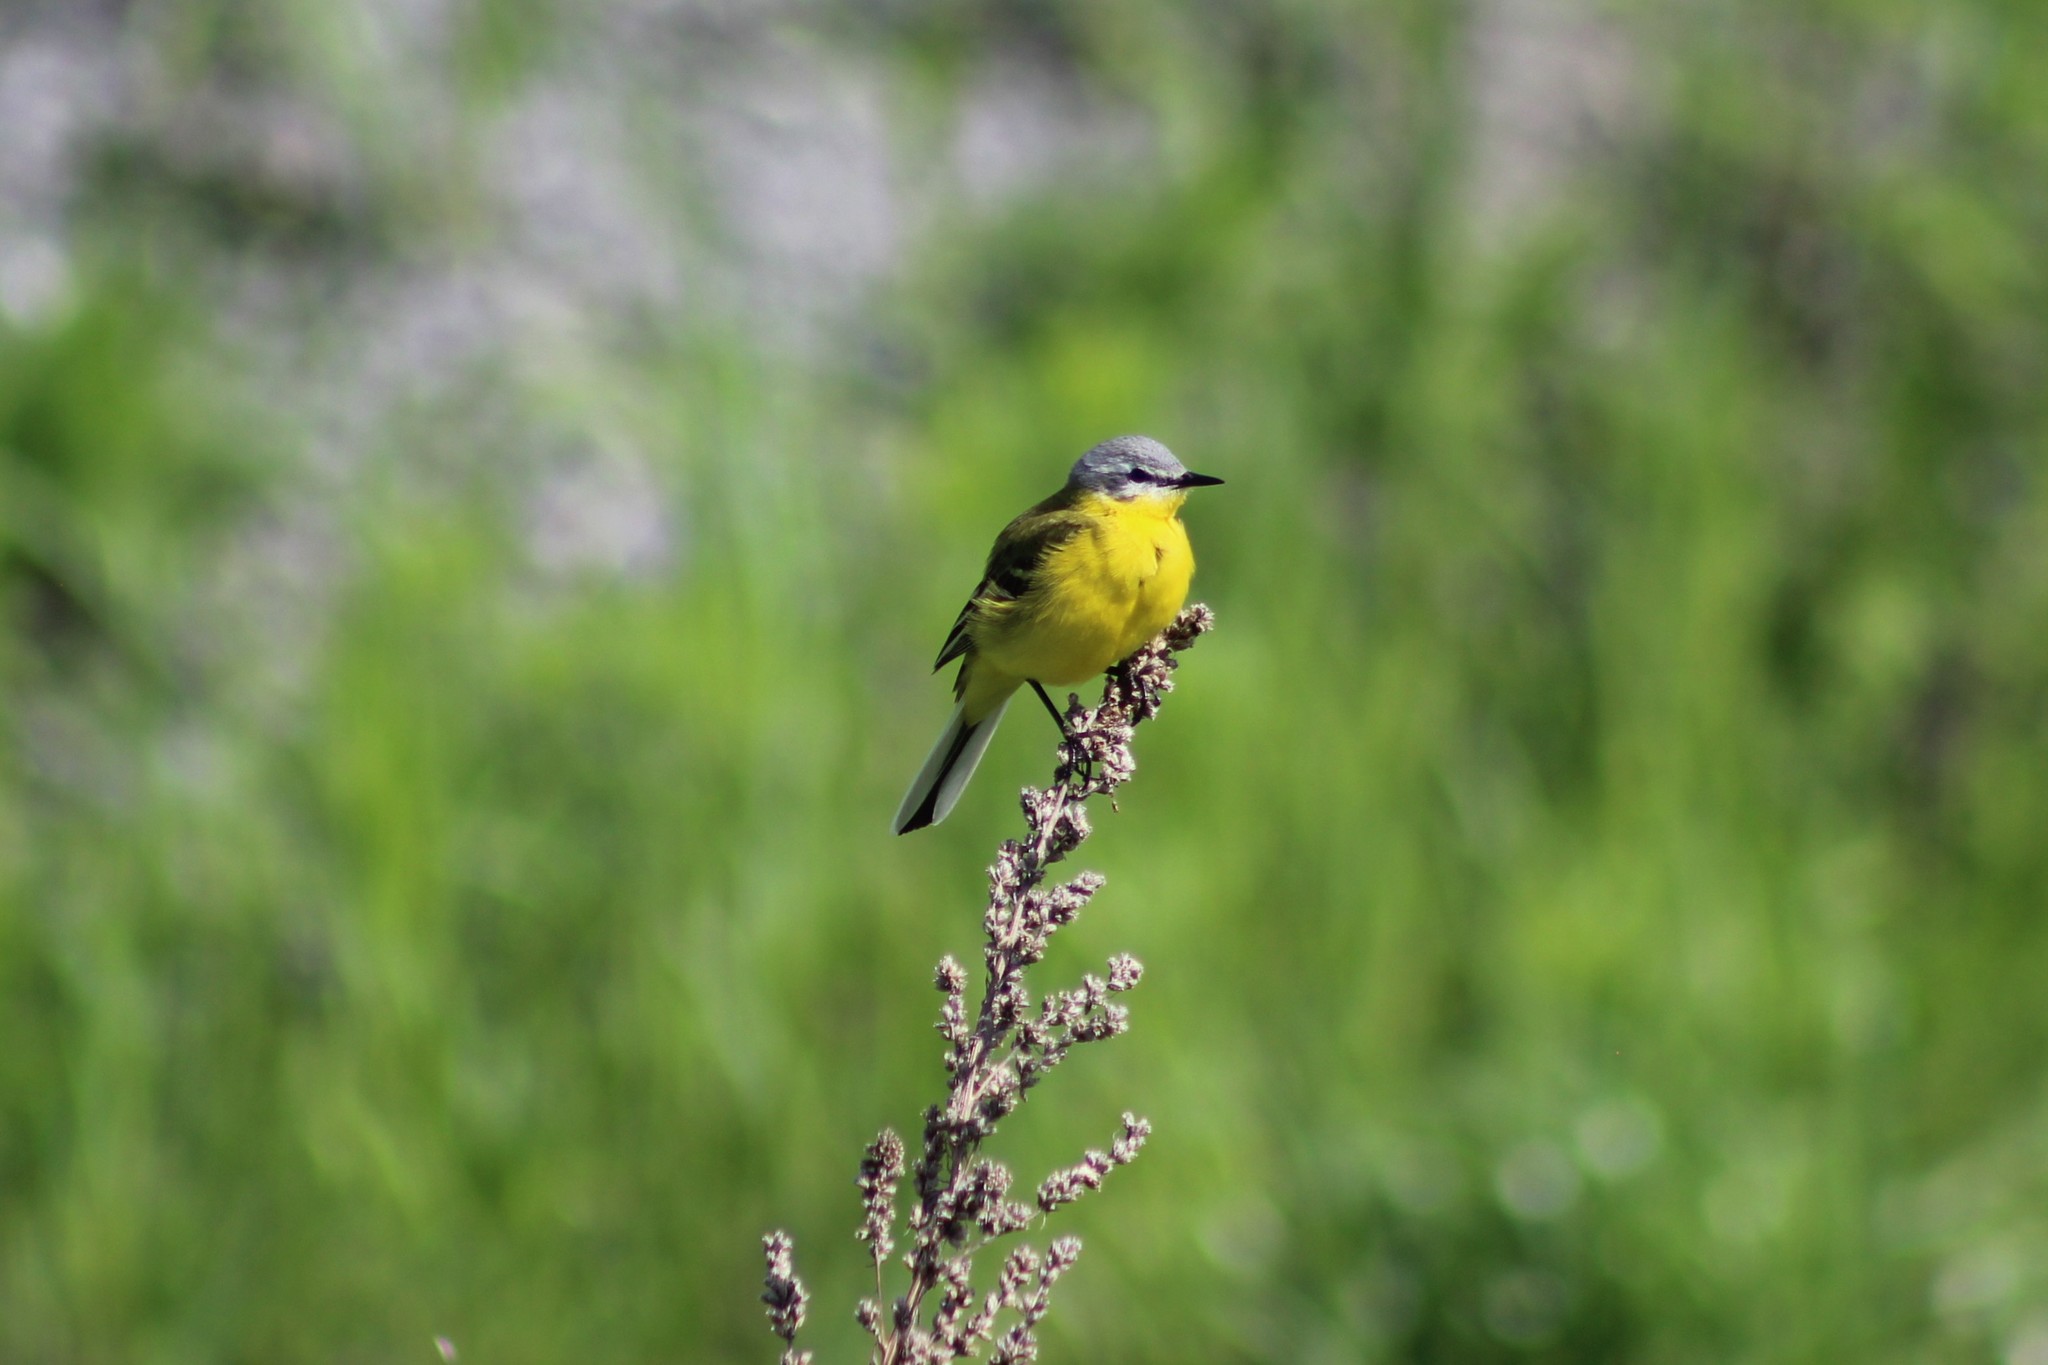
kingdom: Animalia
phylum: Chordata
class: Aves
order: Passeriformes
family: Motacillidae
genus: Motacilla
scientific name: Motacilla flava
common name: Western yellow wagtail
